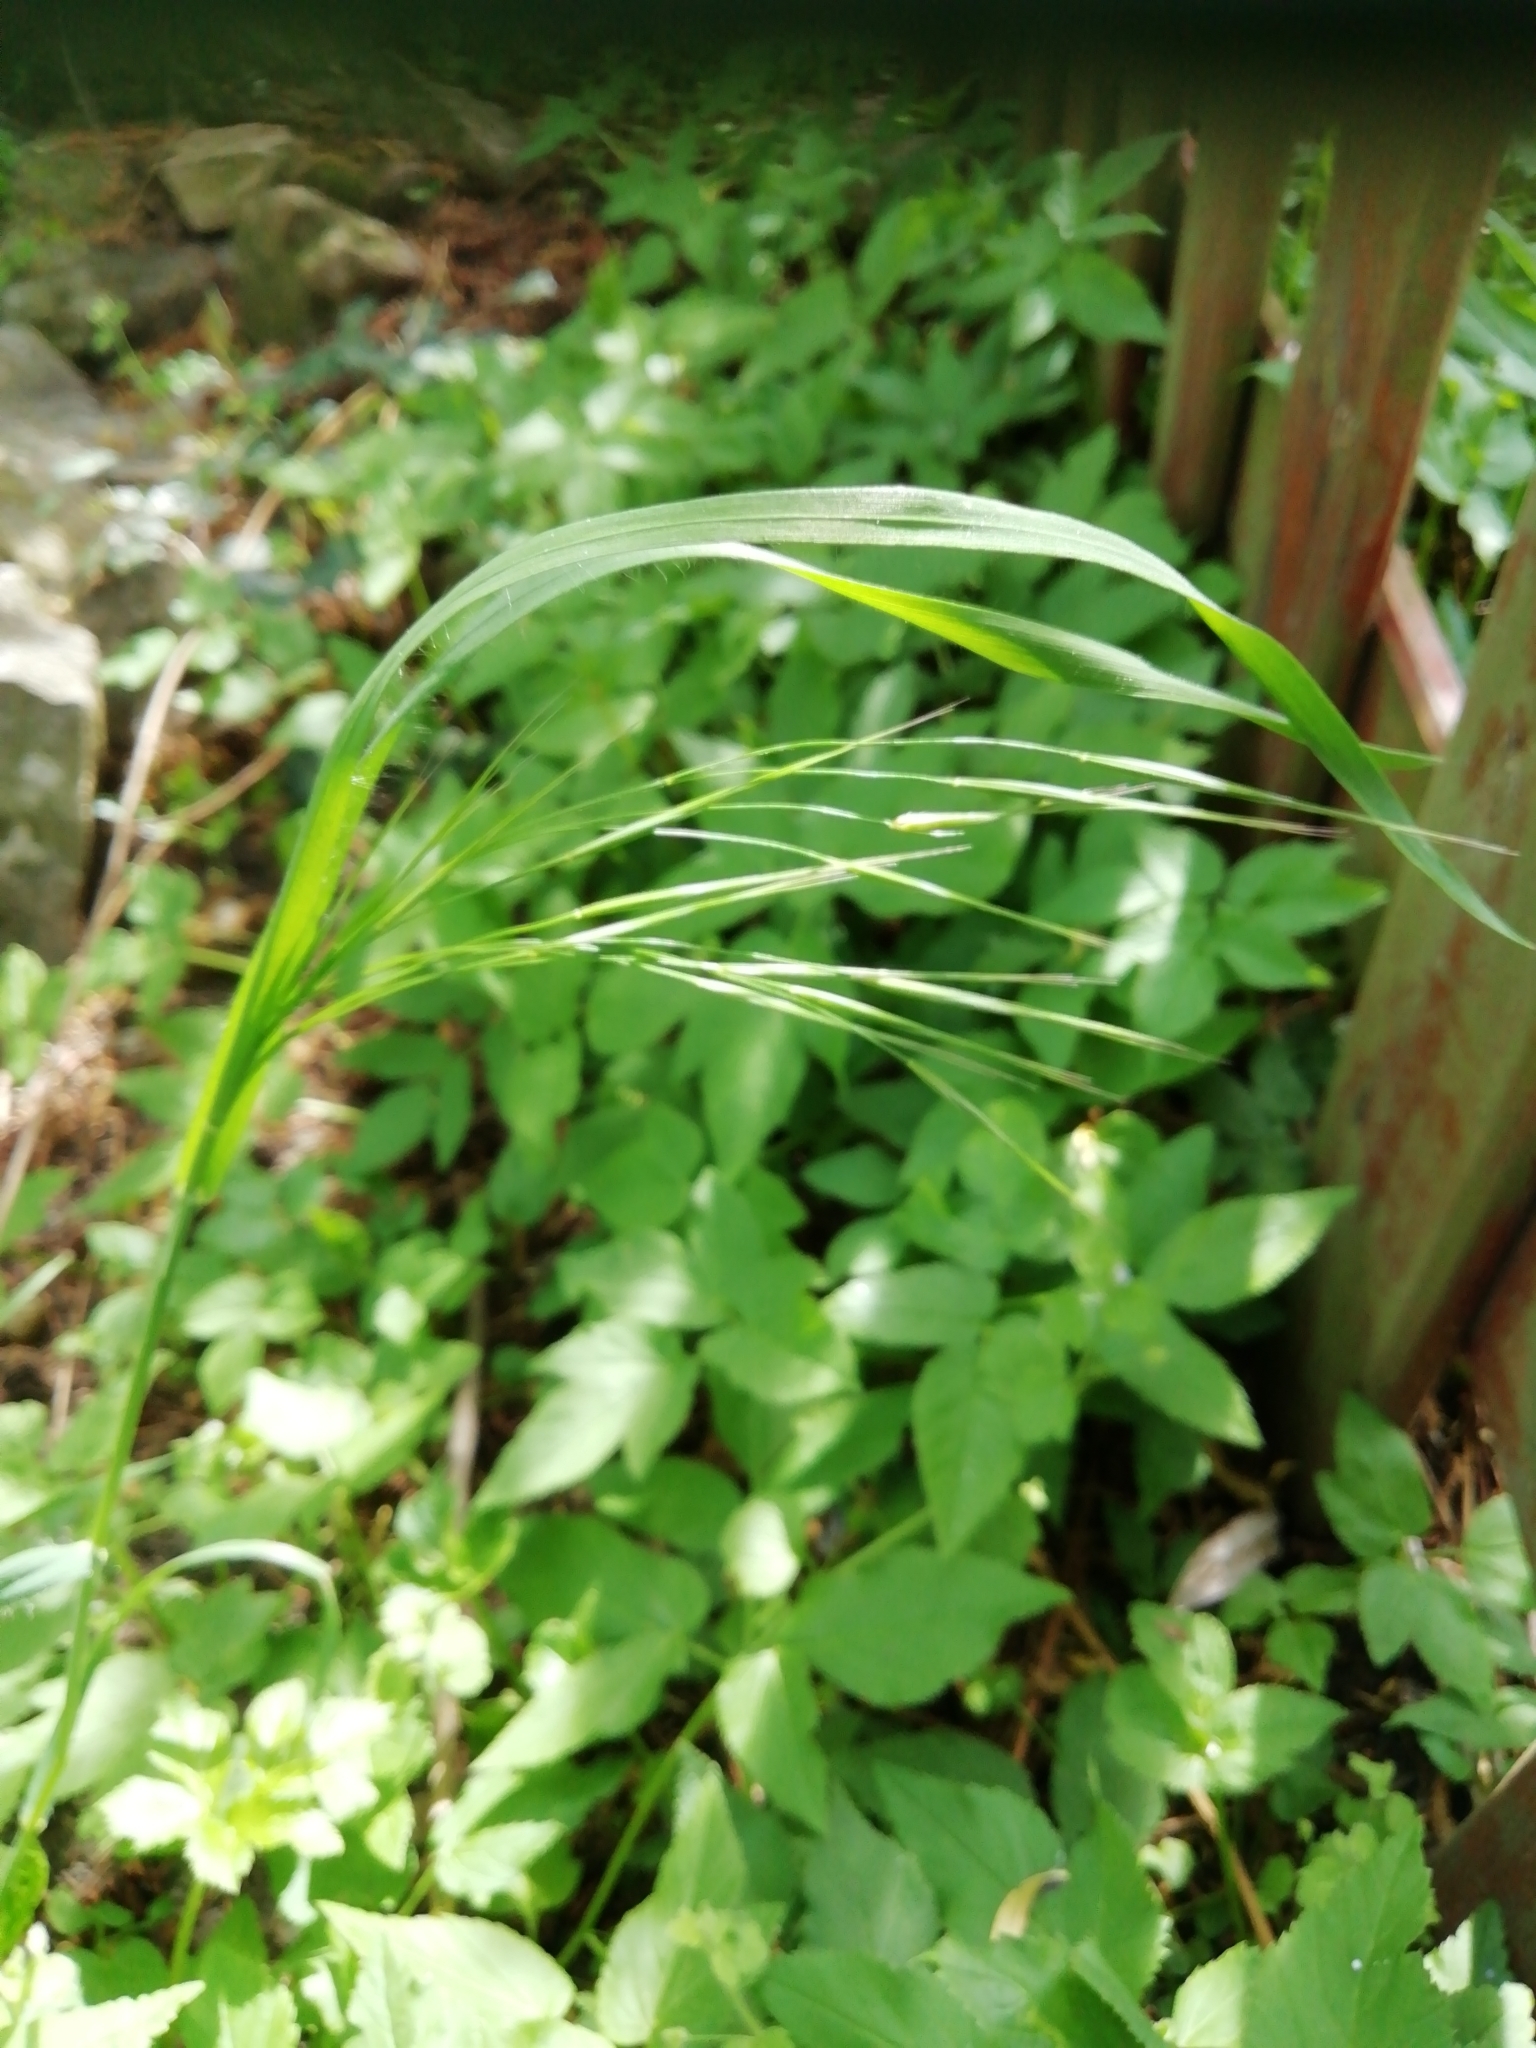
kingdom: Plantae
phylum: Tracheophyta
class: Liliopsida
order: Poales
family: Poaceae
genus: Bromus
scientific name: Bromus sterilis
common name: Poverty brome
